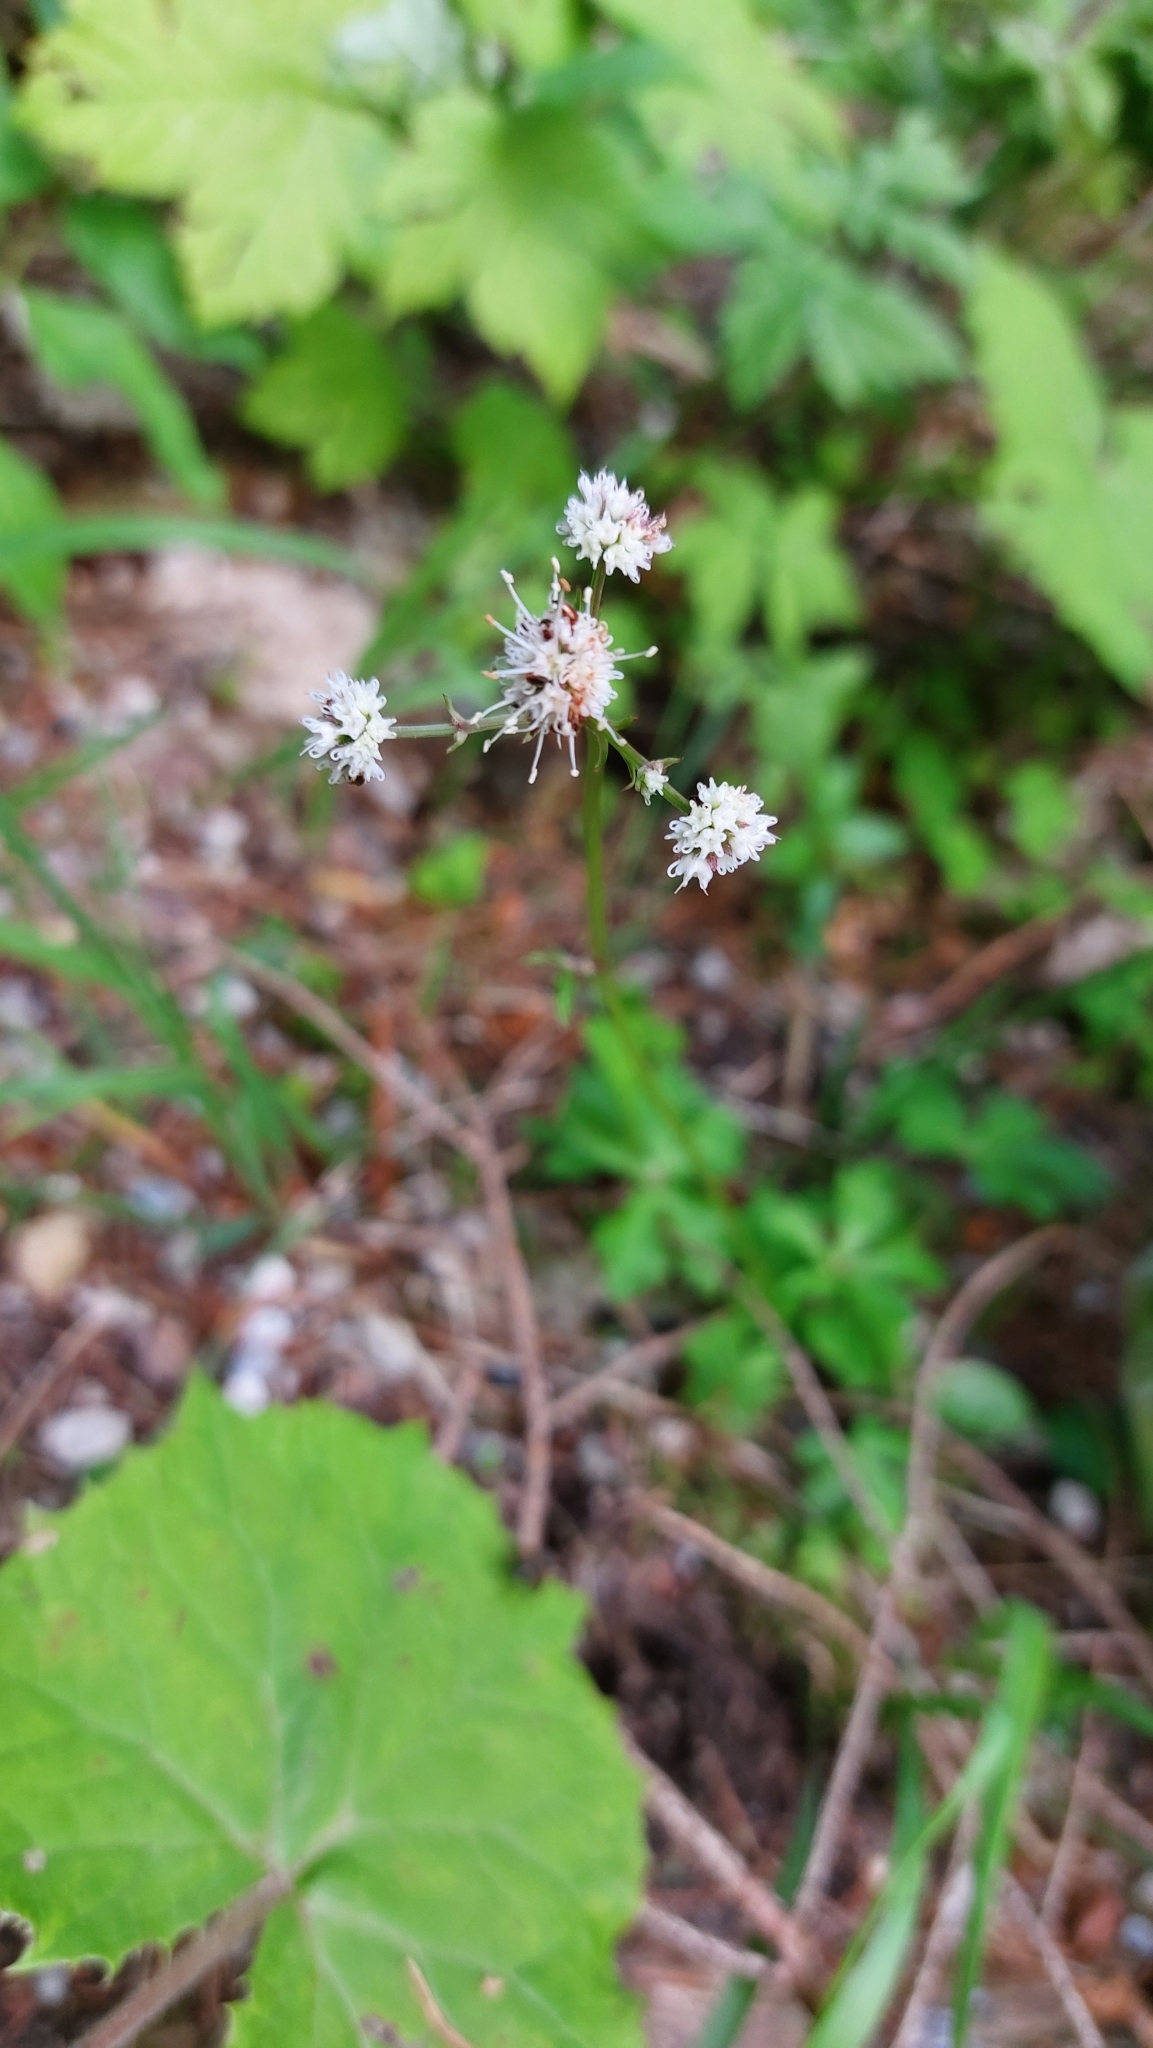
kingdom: Plantae
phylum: Tracheophyta
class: Magnoliopsida
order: Apiales
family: Apiaceae
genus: Sanicula
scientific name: Sanicula europaea
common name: Sanicle
